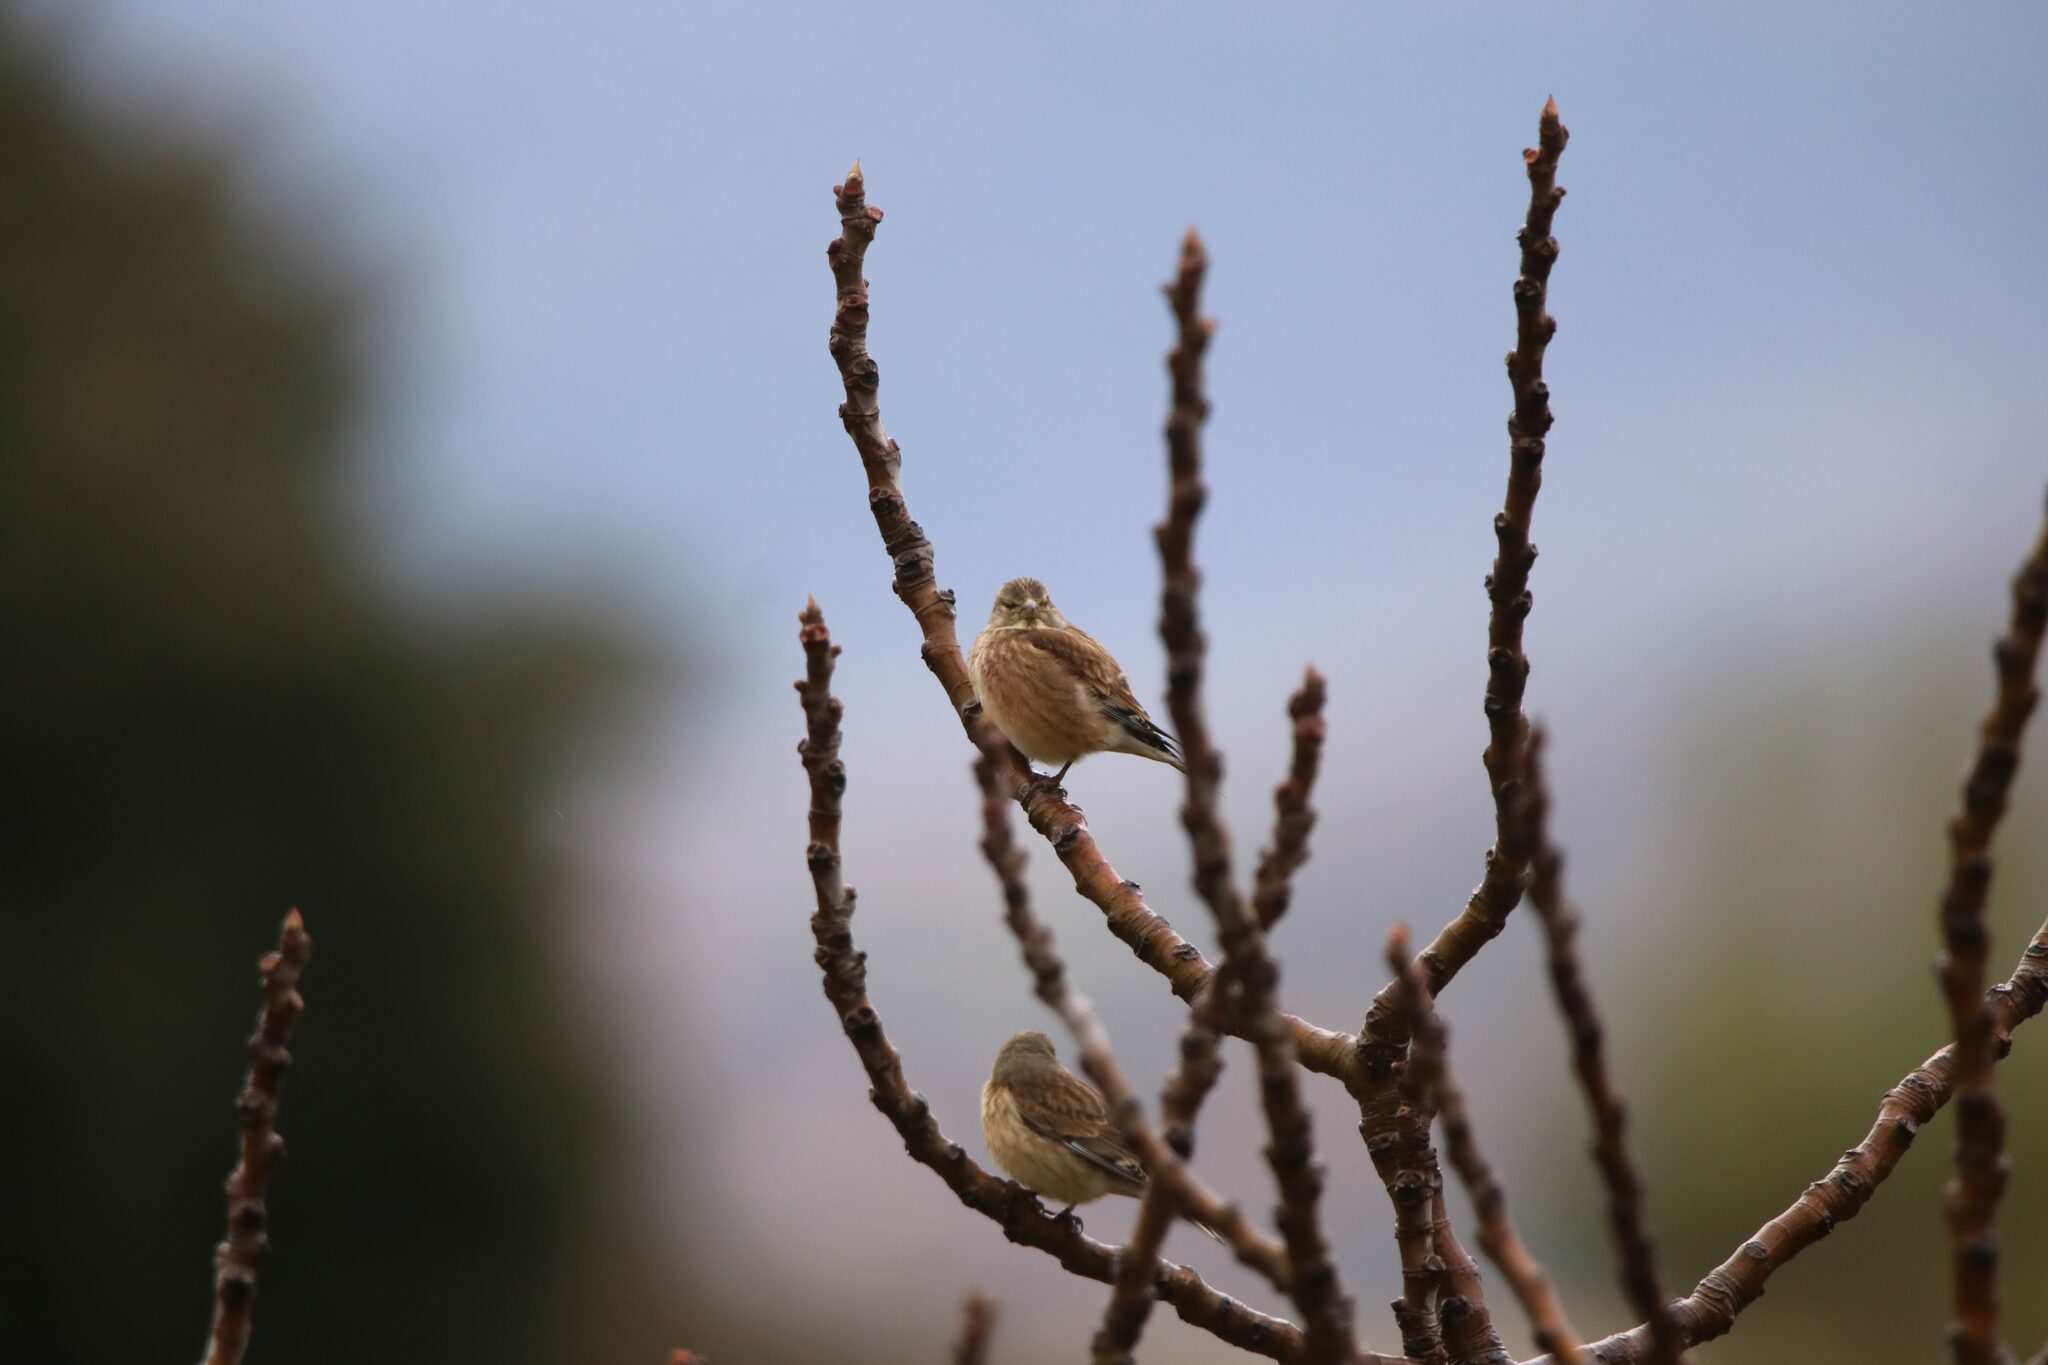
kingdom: Animalia
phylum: Chordata
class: Aves
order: Passeriformes
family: Fringillidae
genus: Linaria
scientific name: Linaria cannabina
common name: Common linnet
